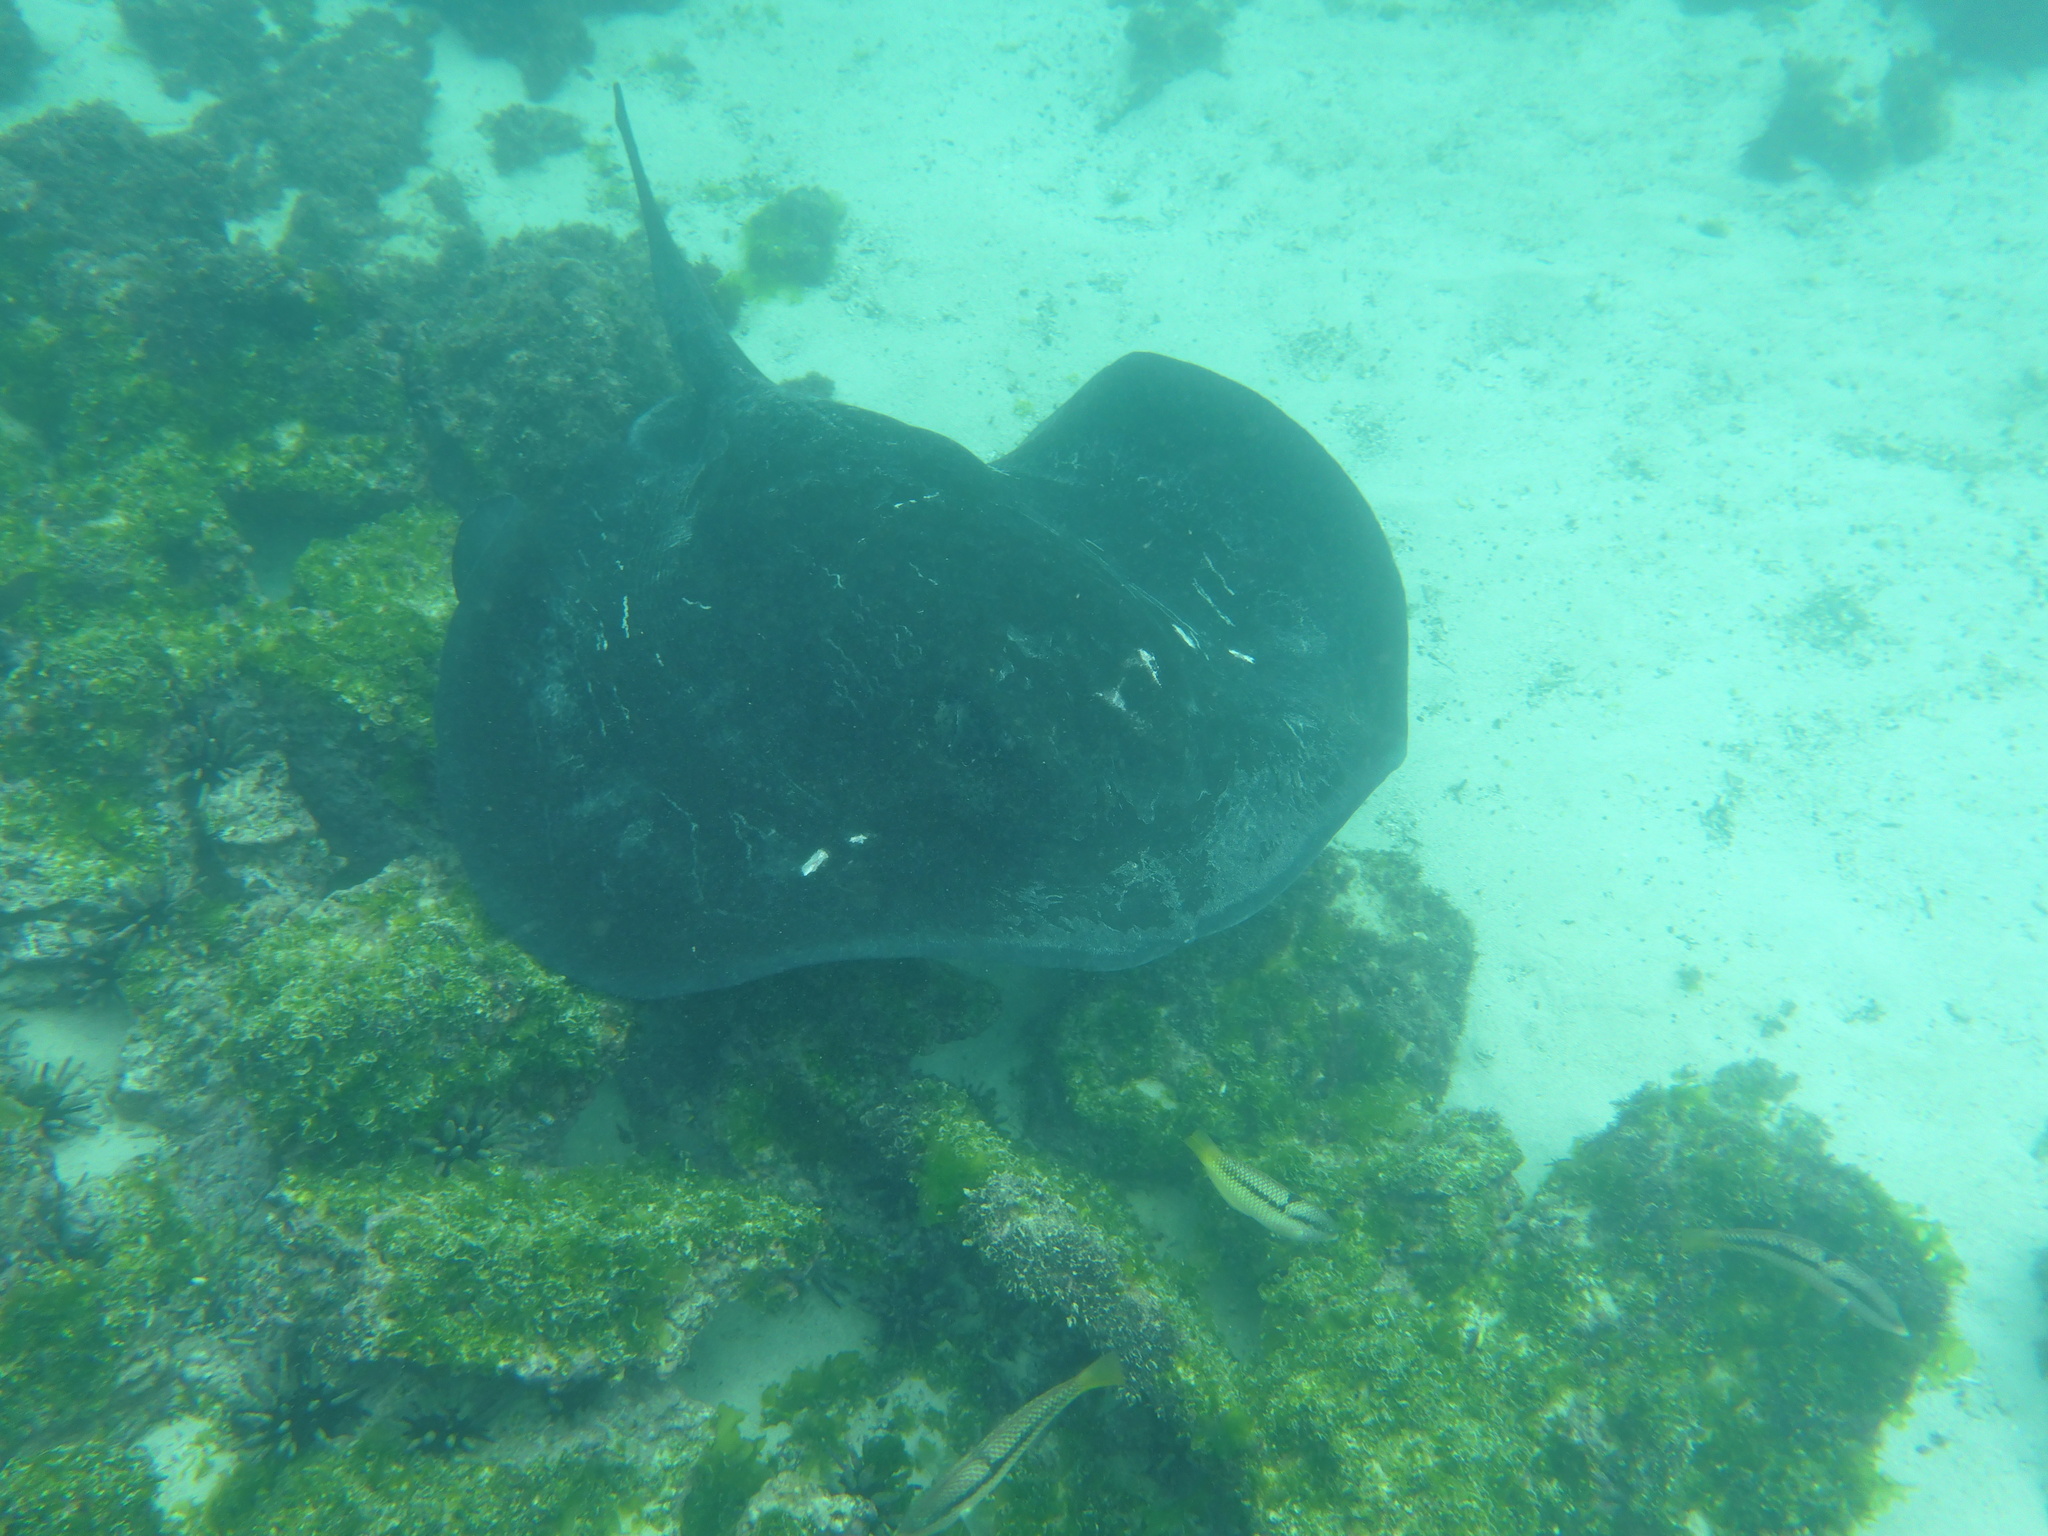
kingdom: Animalia
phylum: Chordata
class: Elasmobranchii
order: Myliobatiformes
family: Dasyatidae
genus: Taeniurops
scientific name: Taeniurops meyeni
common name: Black-blotched stingray
